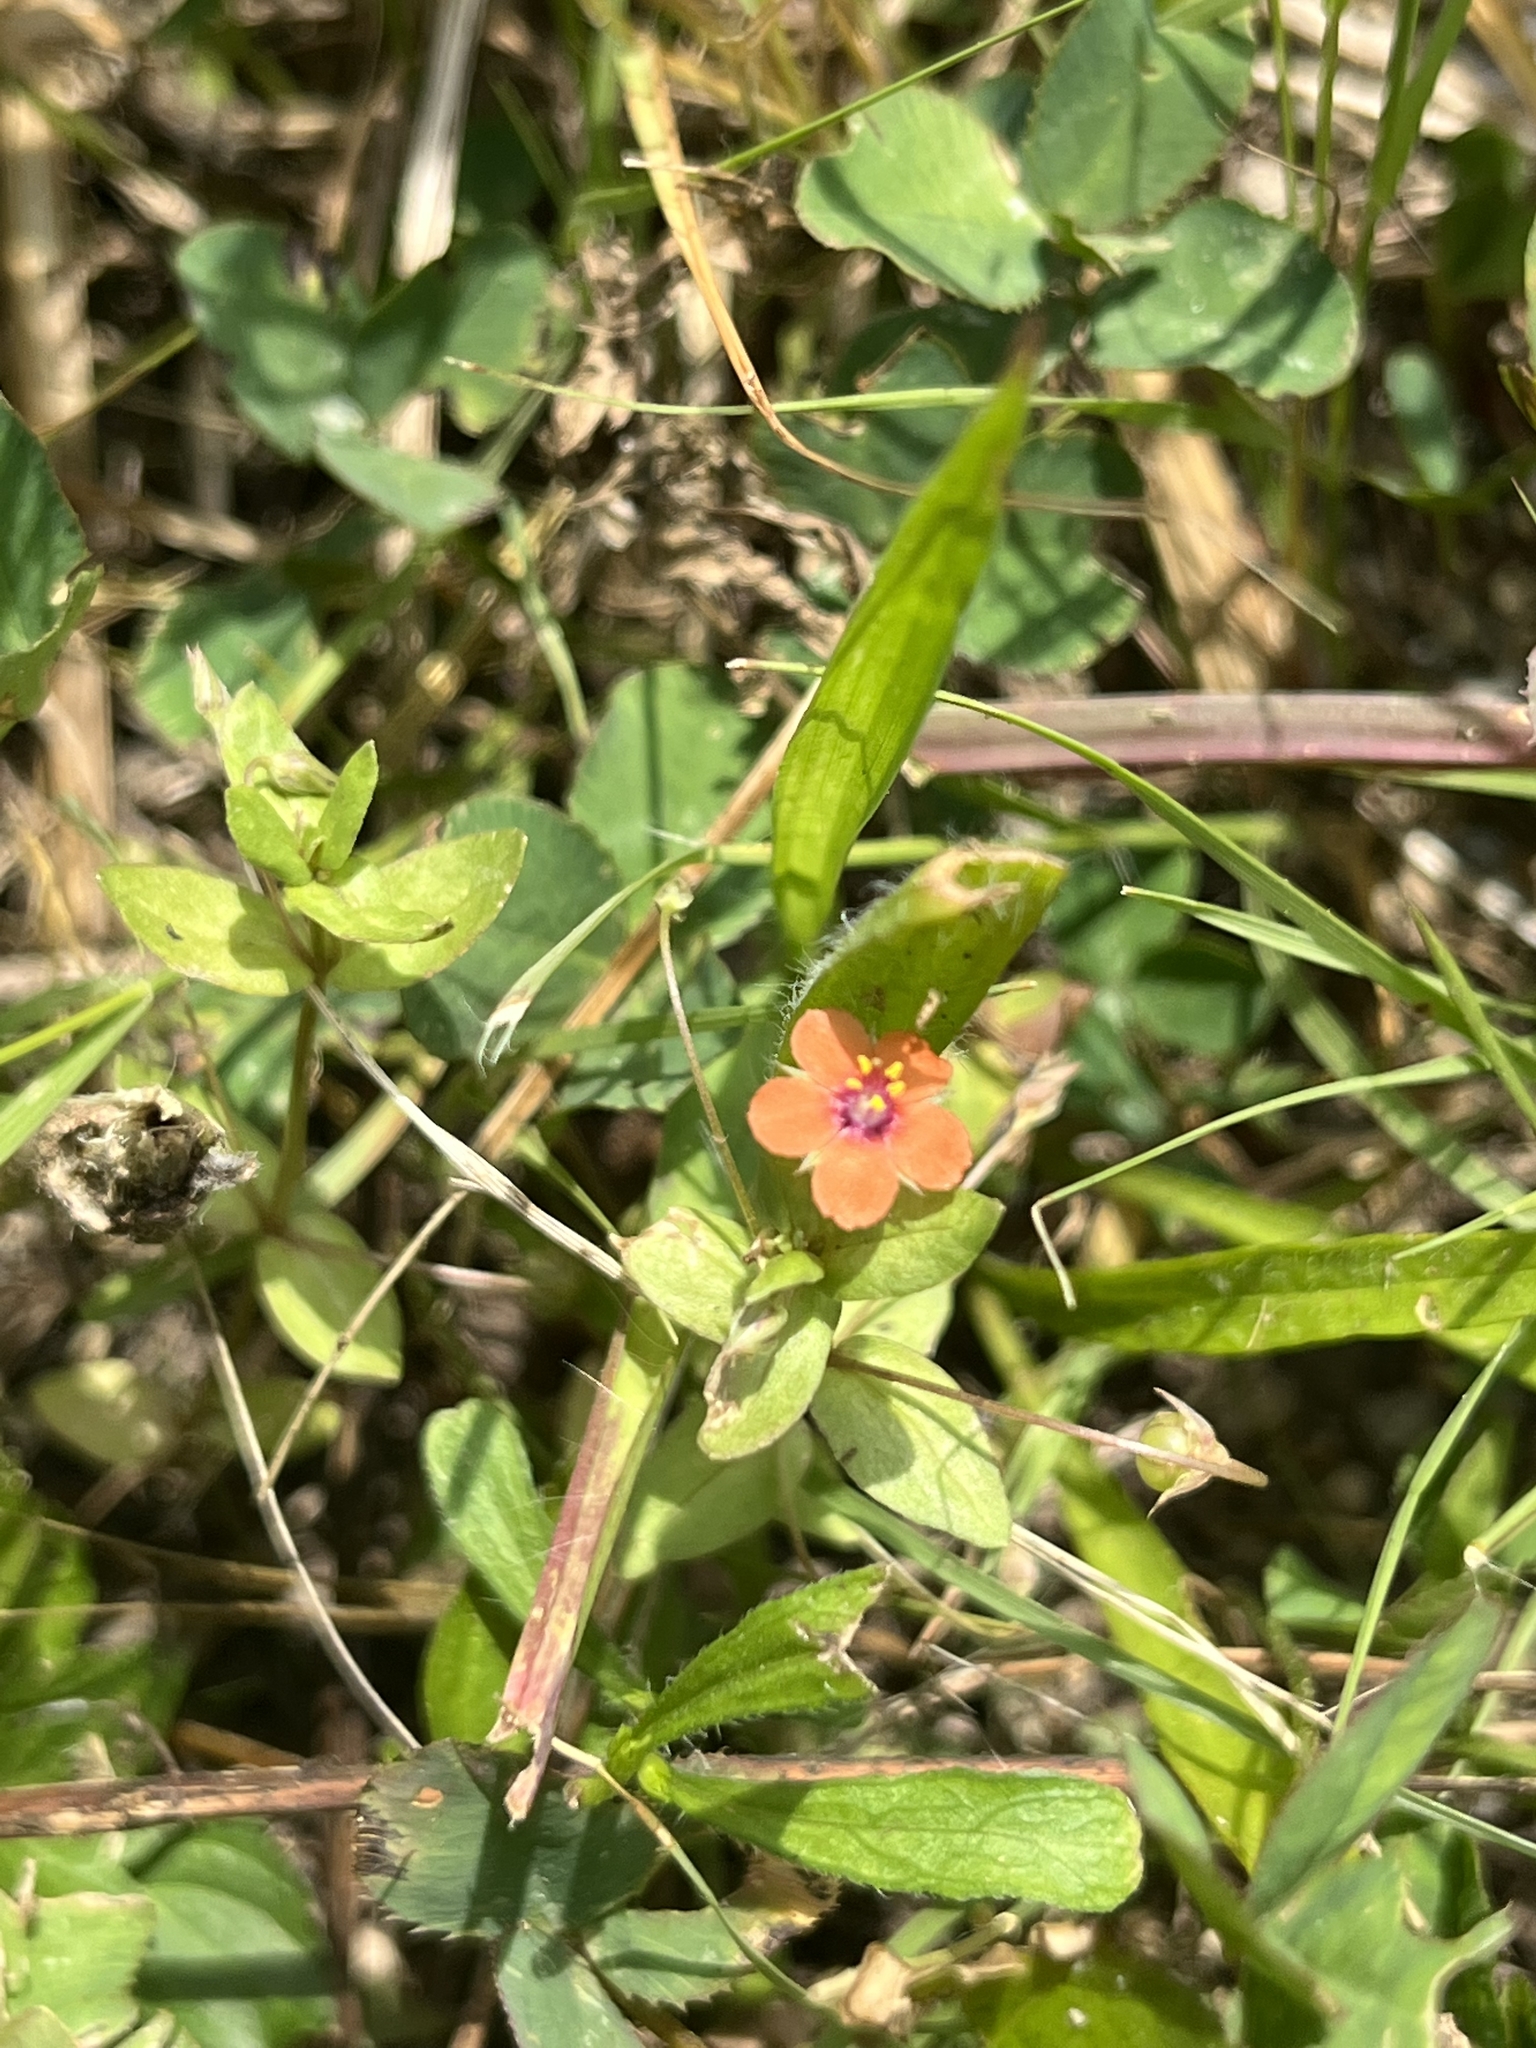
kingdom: Plantae
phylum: Tracheophyta
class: Magnoliopsida
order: Ericales
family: Primulaceae
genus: Lysimachia
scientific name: Lysimachia arvensis
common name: Scarlet pimpernel
